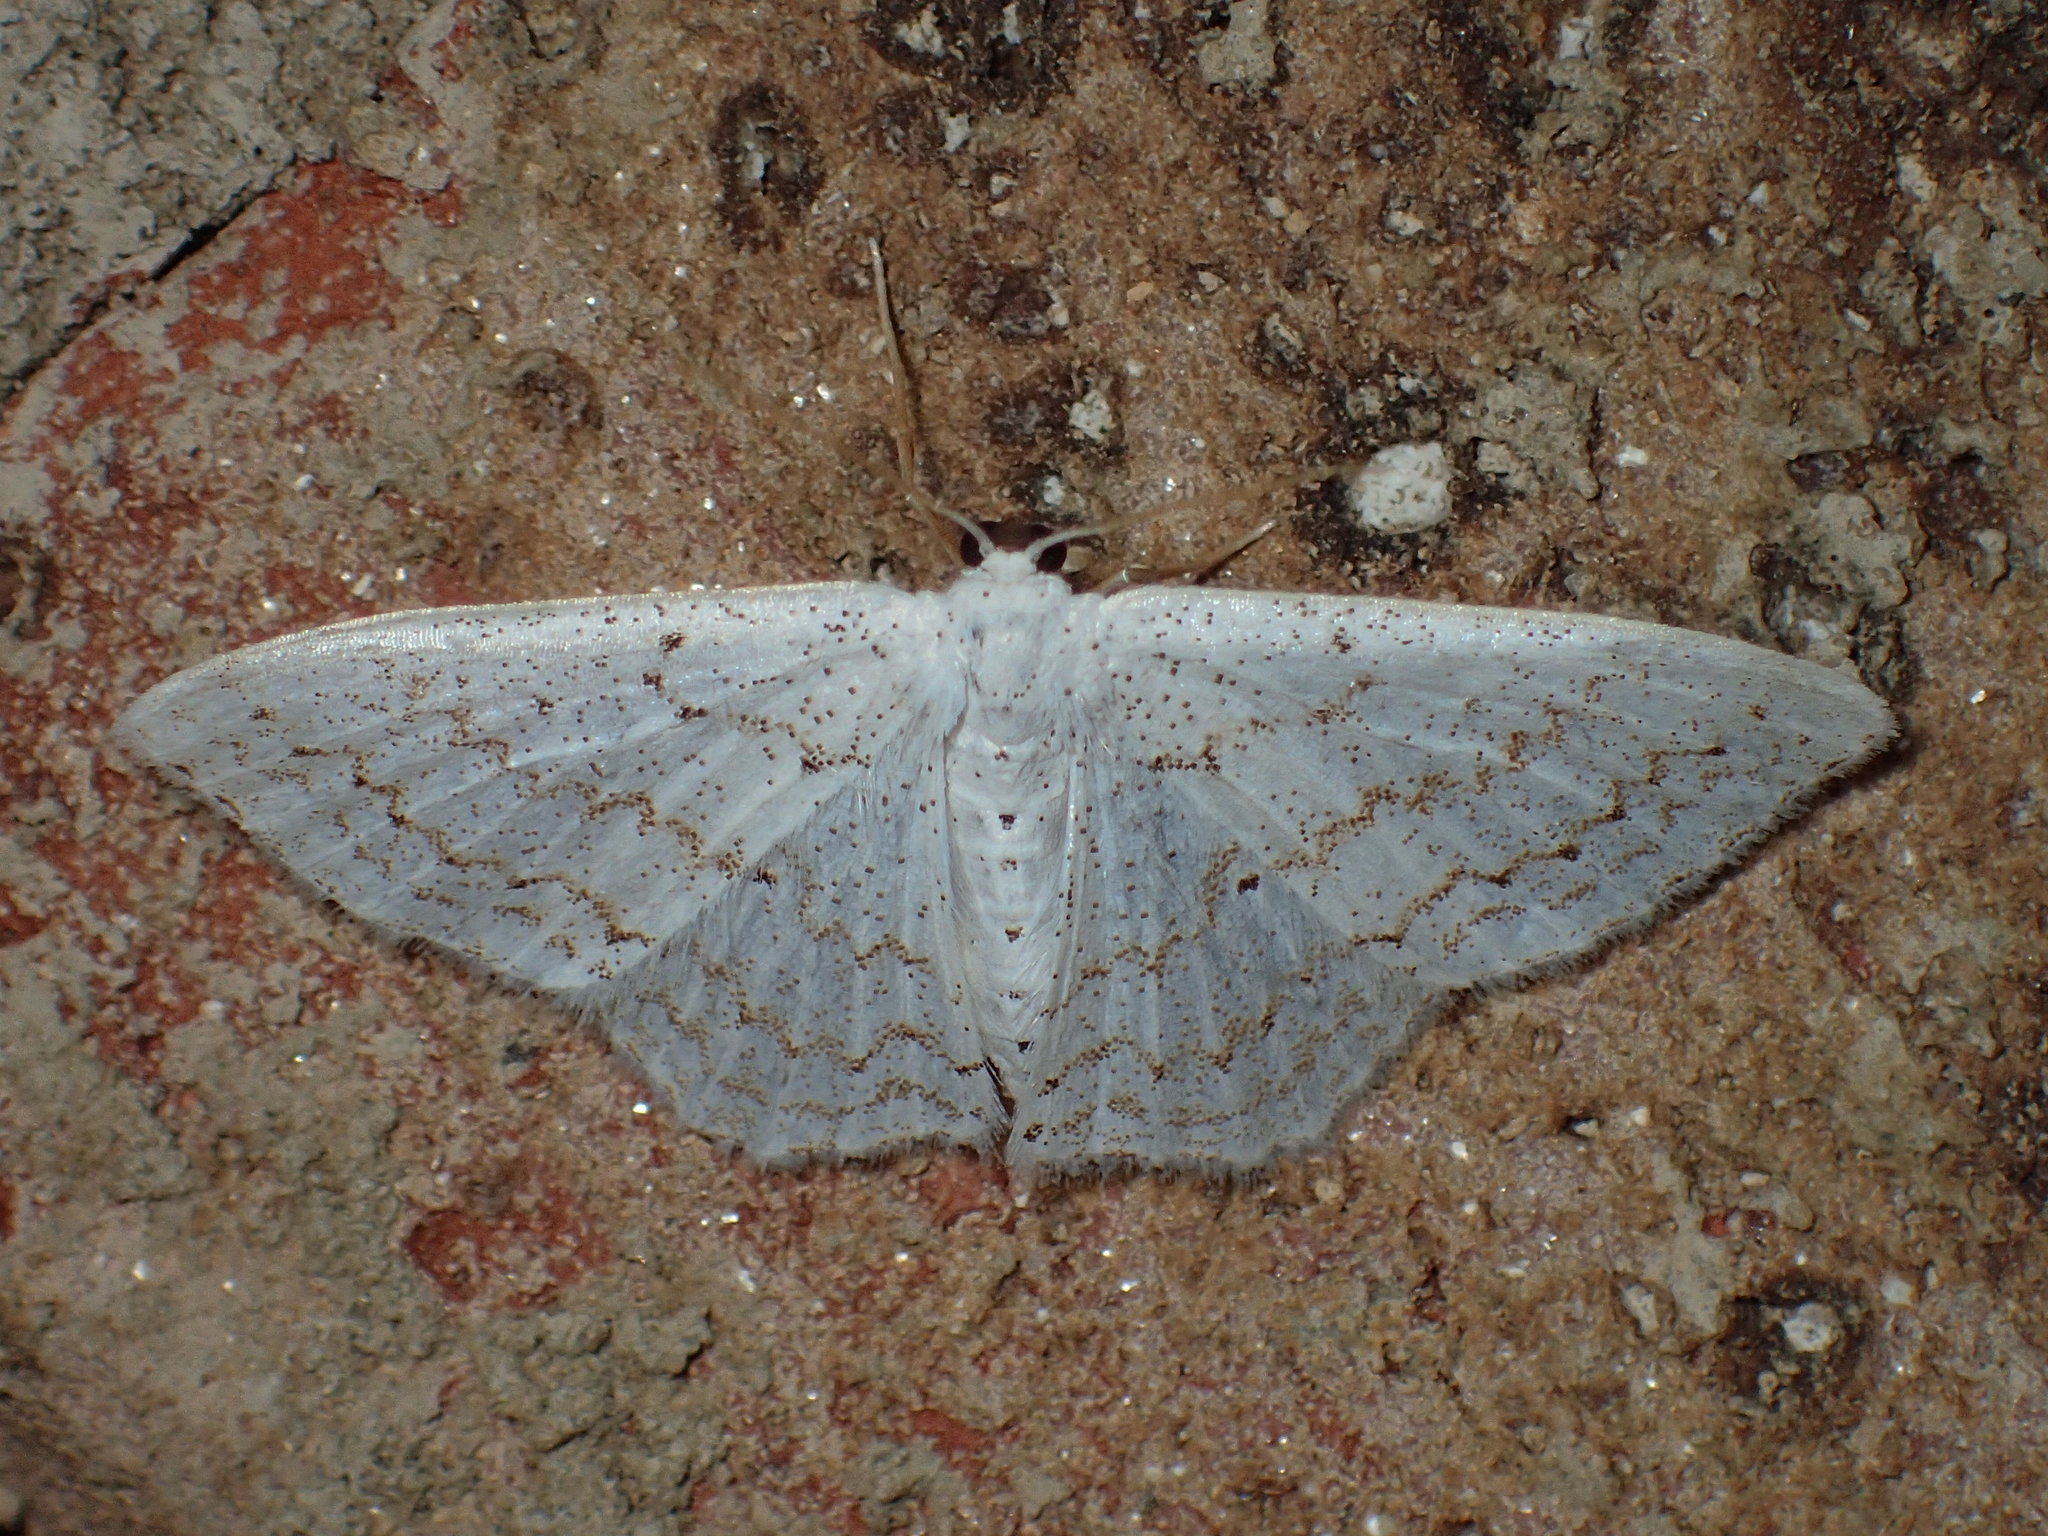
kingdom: Animalia
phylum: Arthropoda
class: Insecta
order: Lepidoptera
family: Geometridae
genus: Idaea
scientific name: Idaea tacturata
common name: Dot-lined wave
